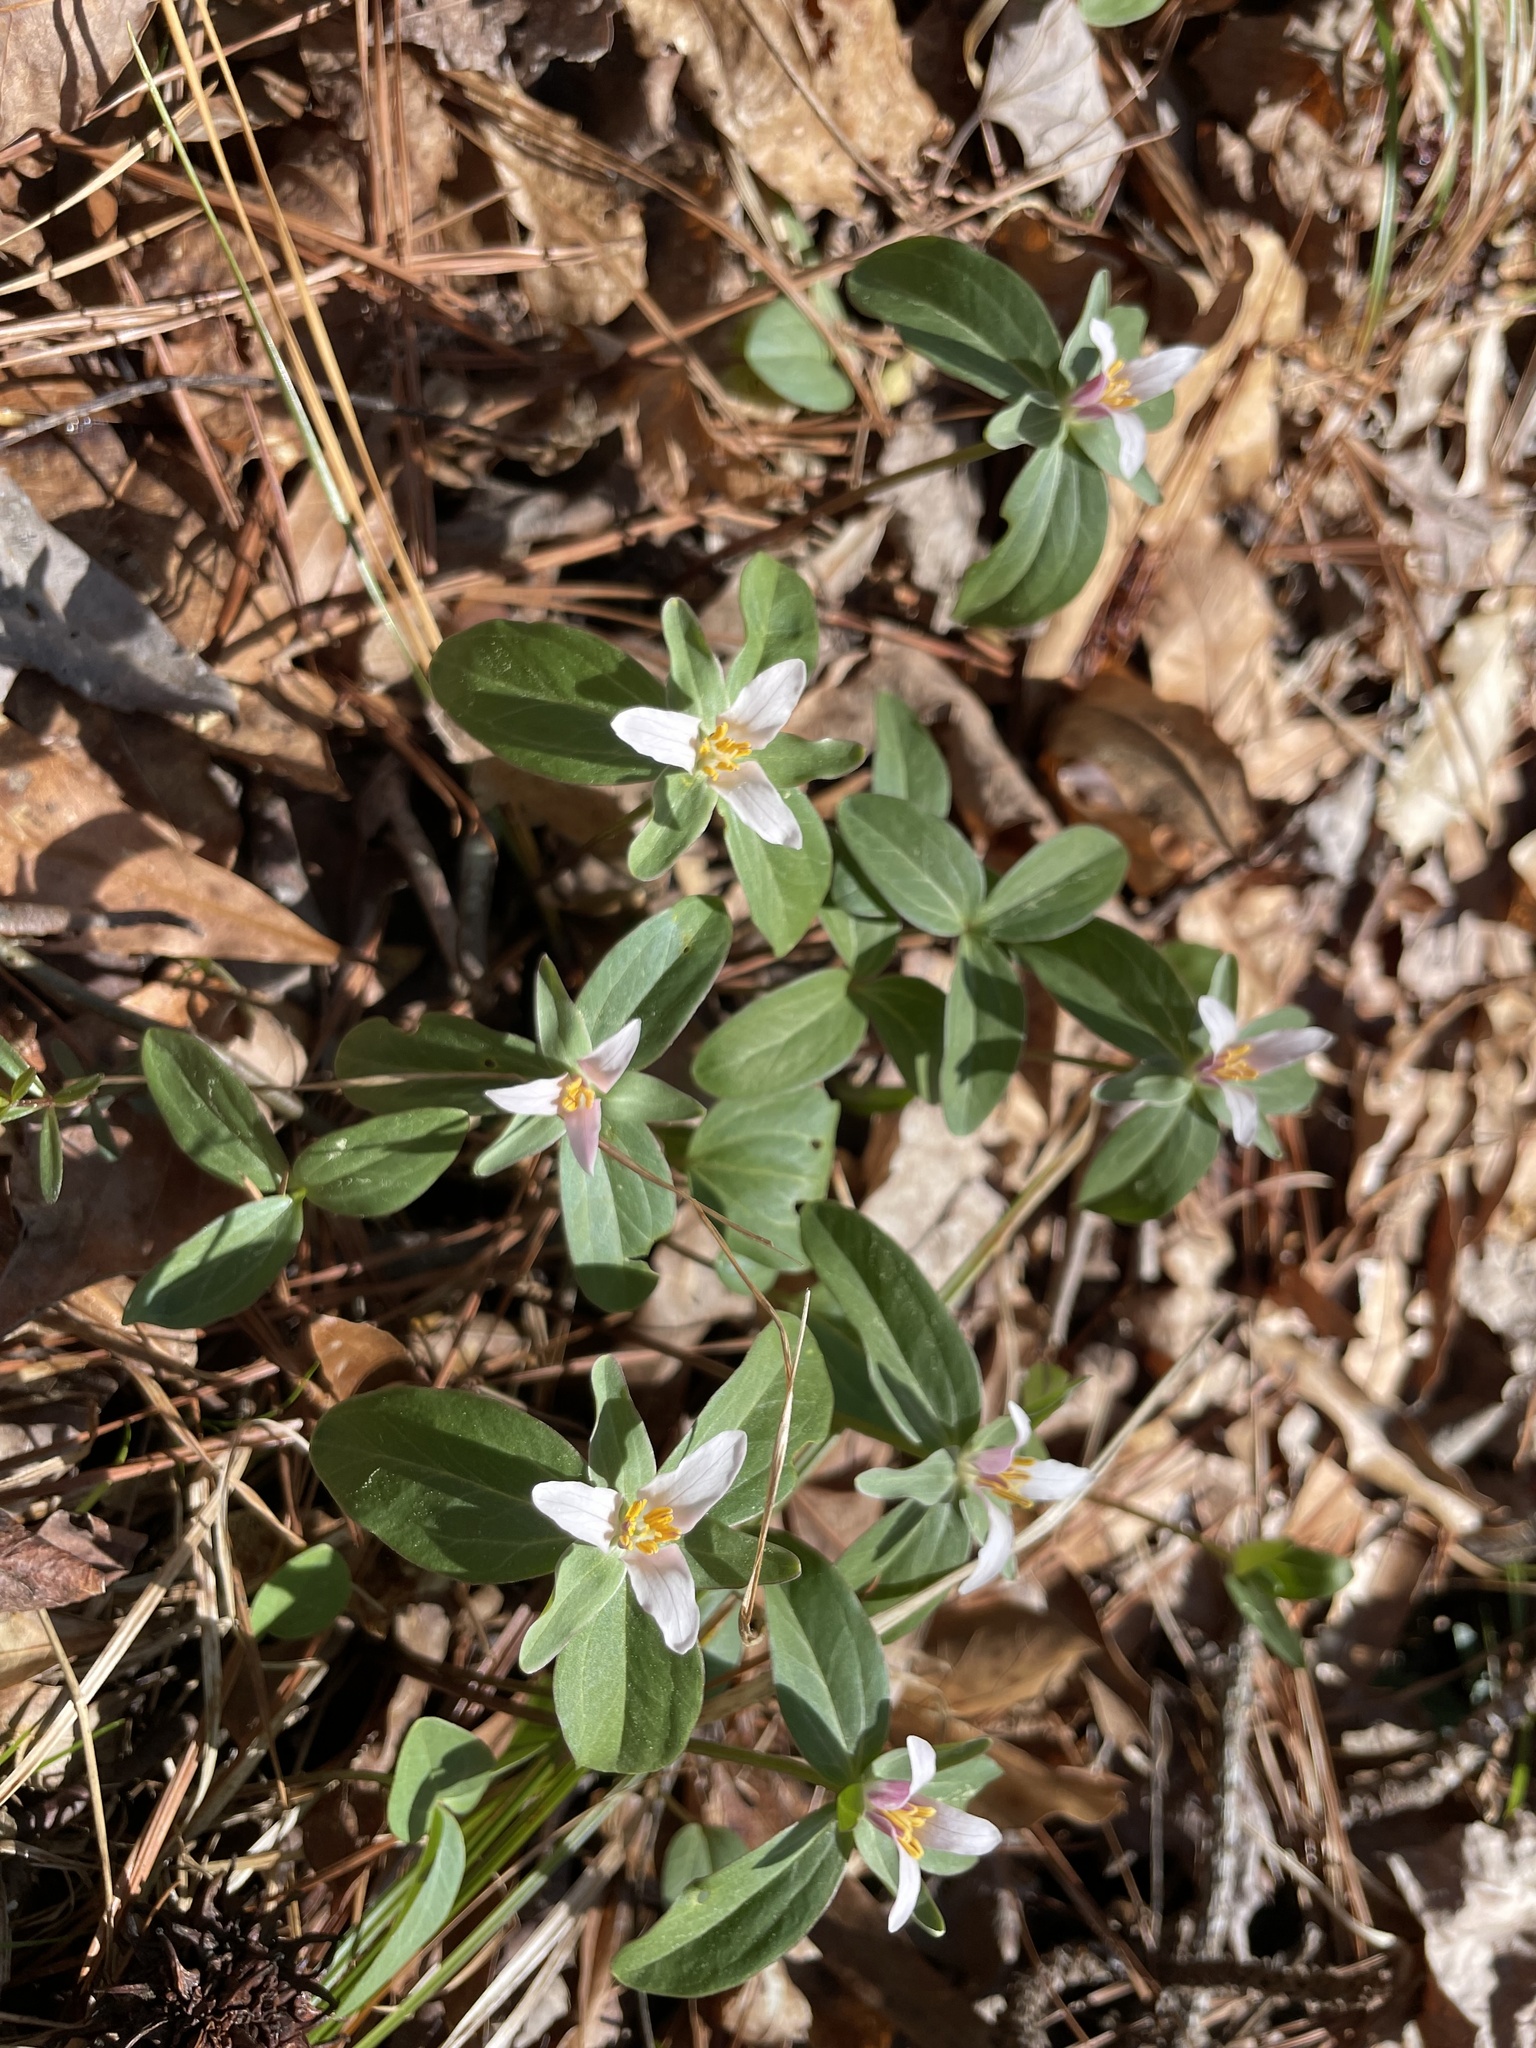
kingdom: Plantae
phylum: Tracheophyta
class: Liliopsida
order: Liliales
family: Melanthiaceae
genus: Trillium
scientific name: Trillium pusillum
